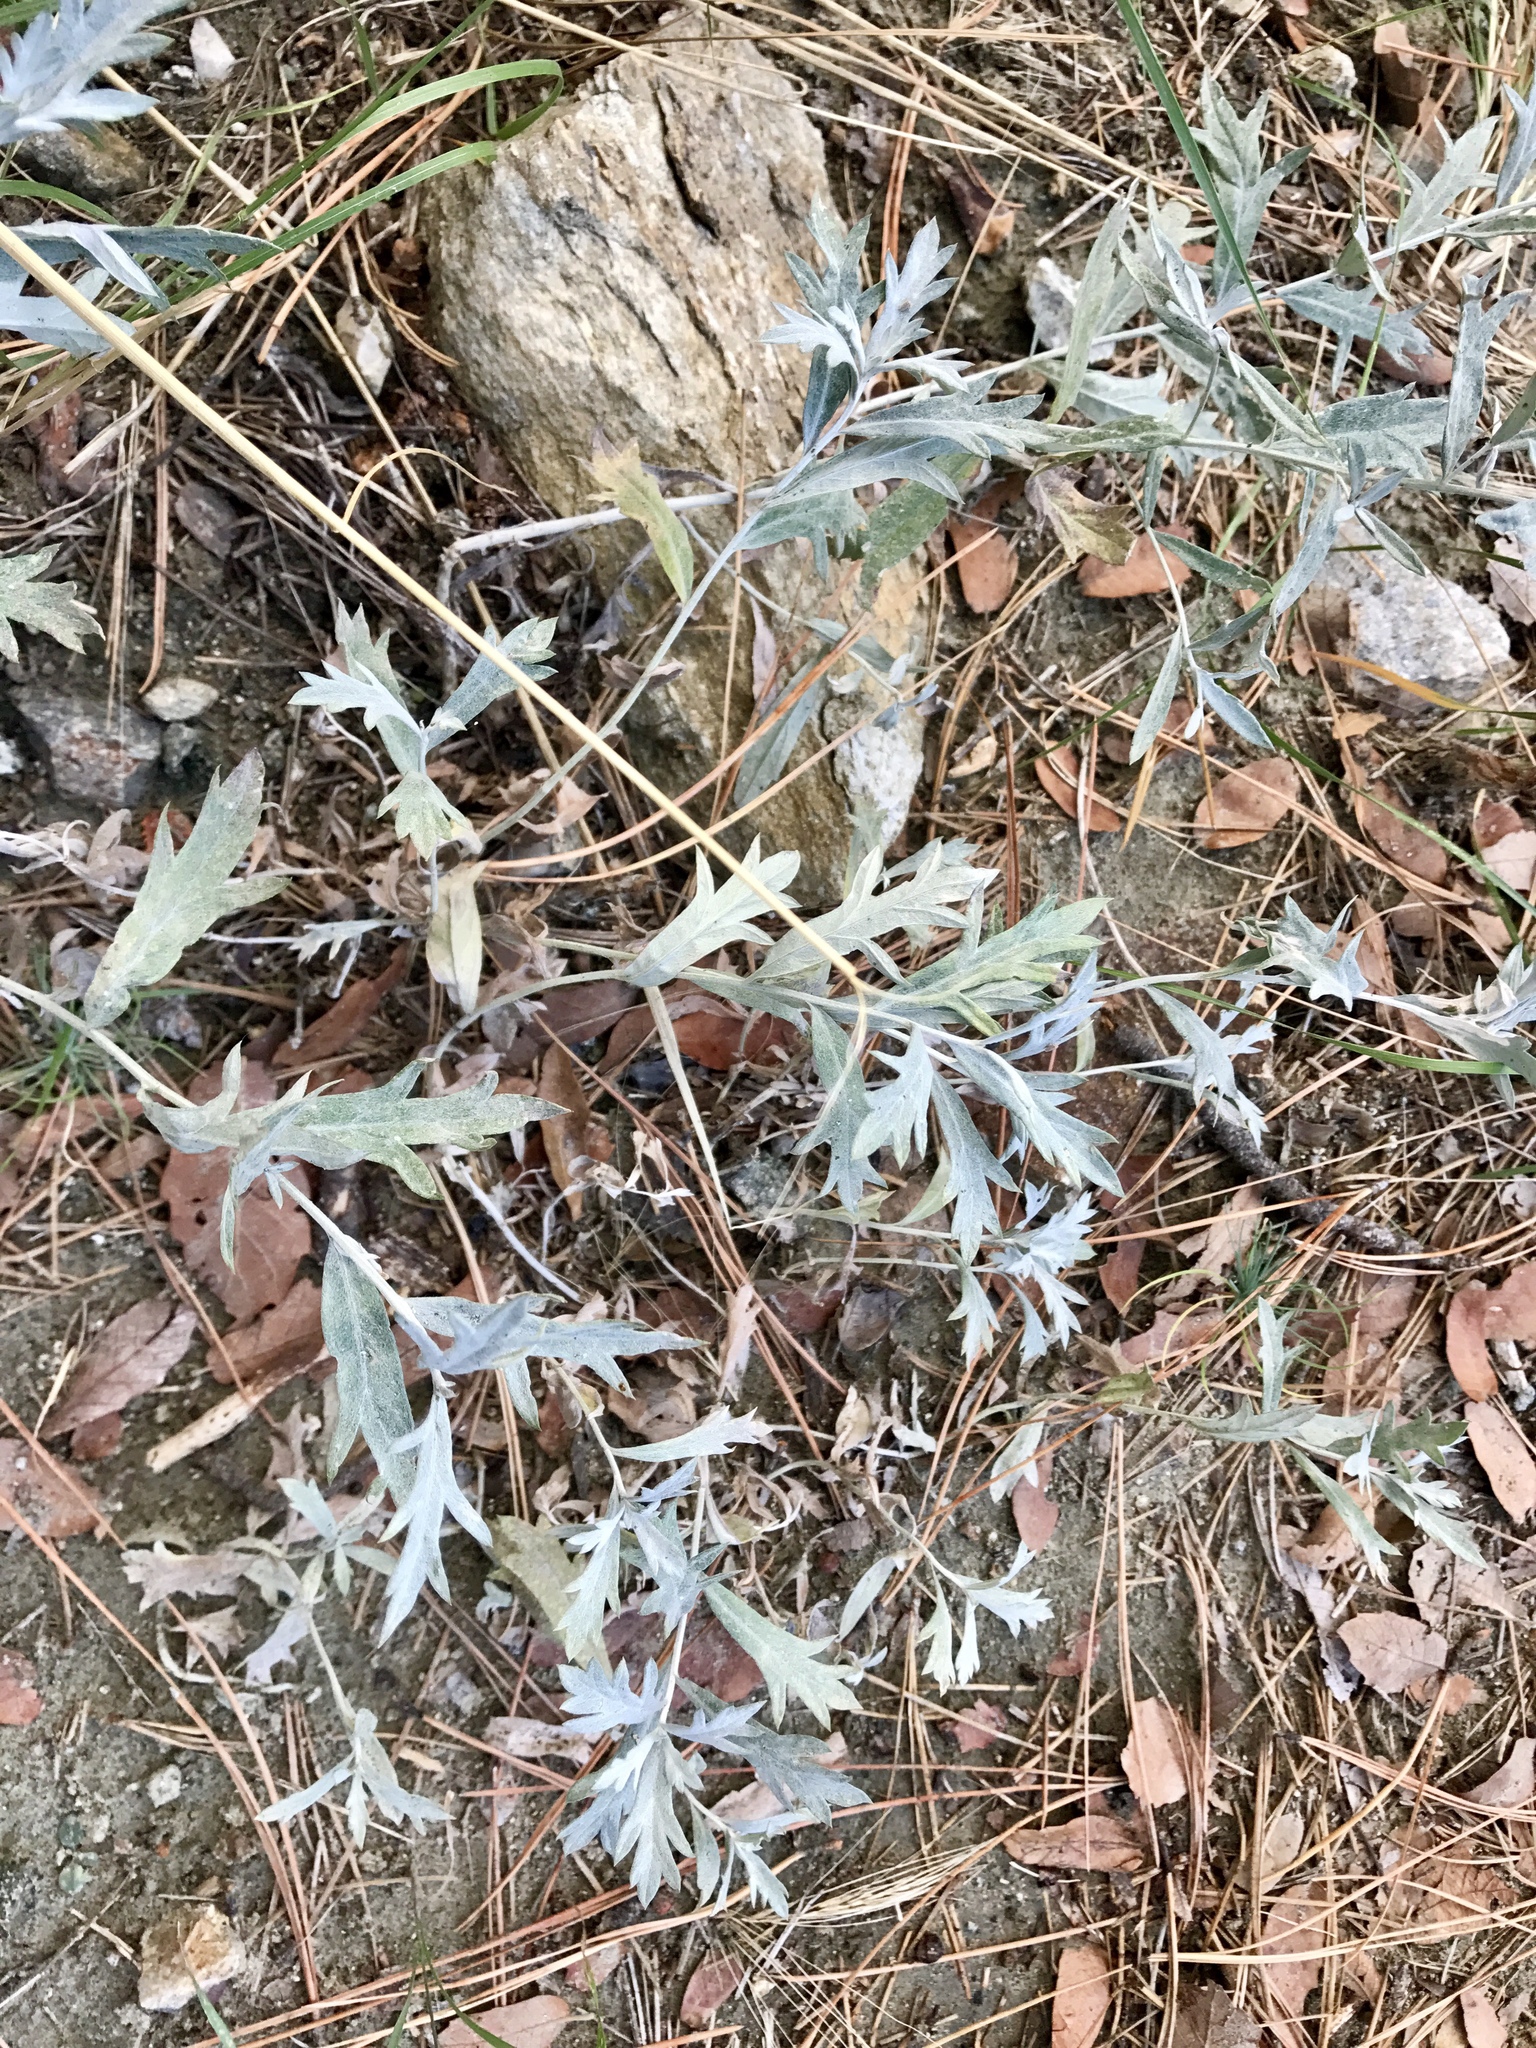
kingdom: Plantae
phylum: Tracheophyta
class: Magnoliopsida
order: Asterales
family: Asteraceae
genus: Artemisia
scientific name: Artemisia ludoviciana
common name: Western mugwort
